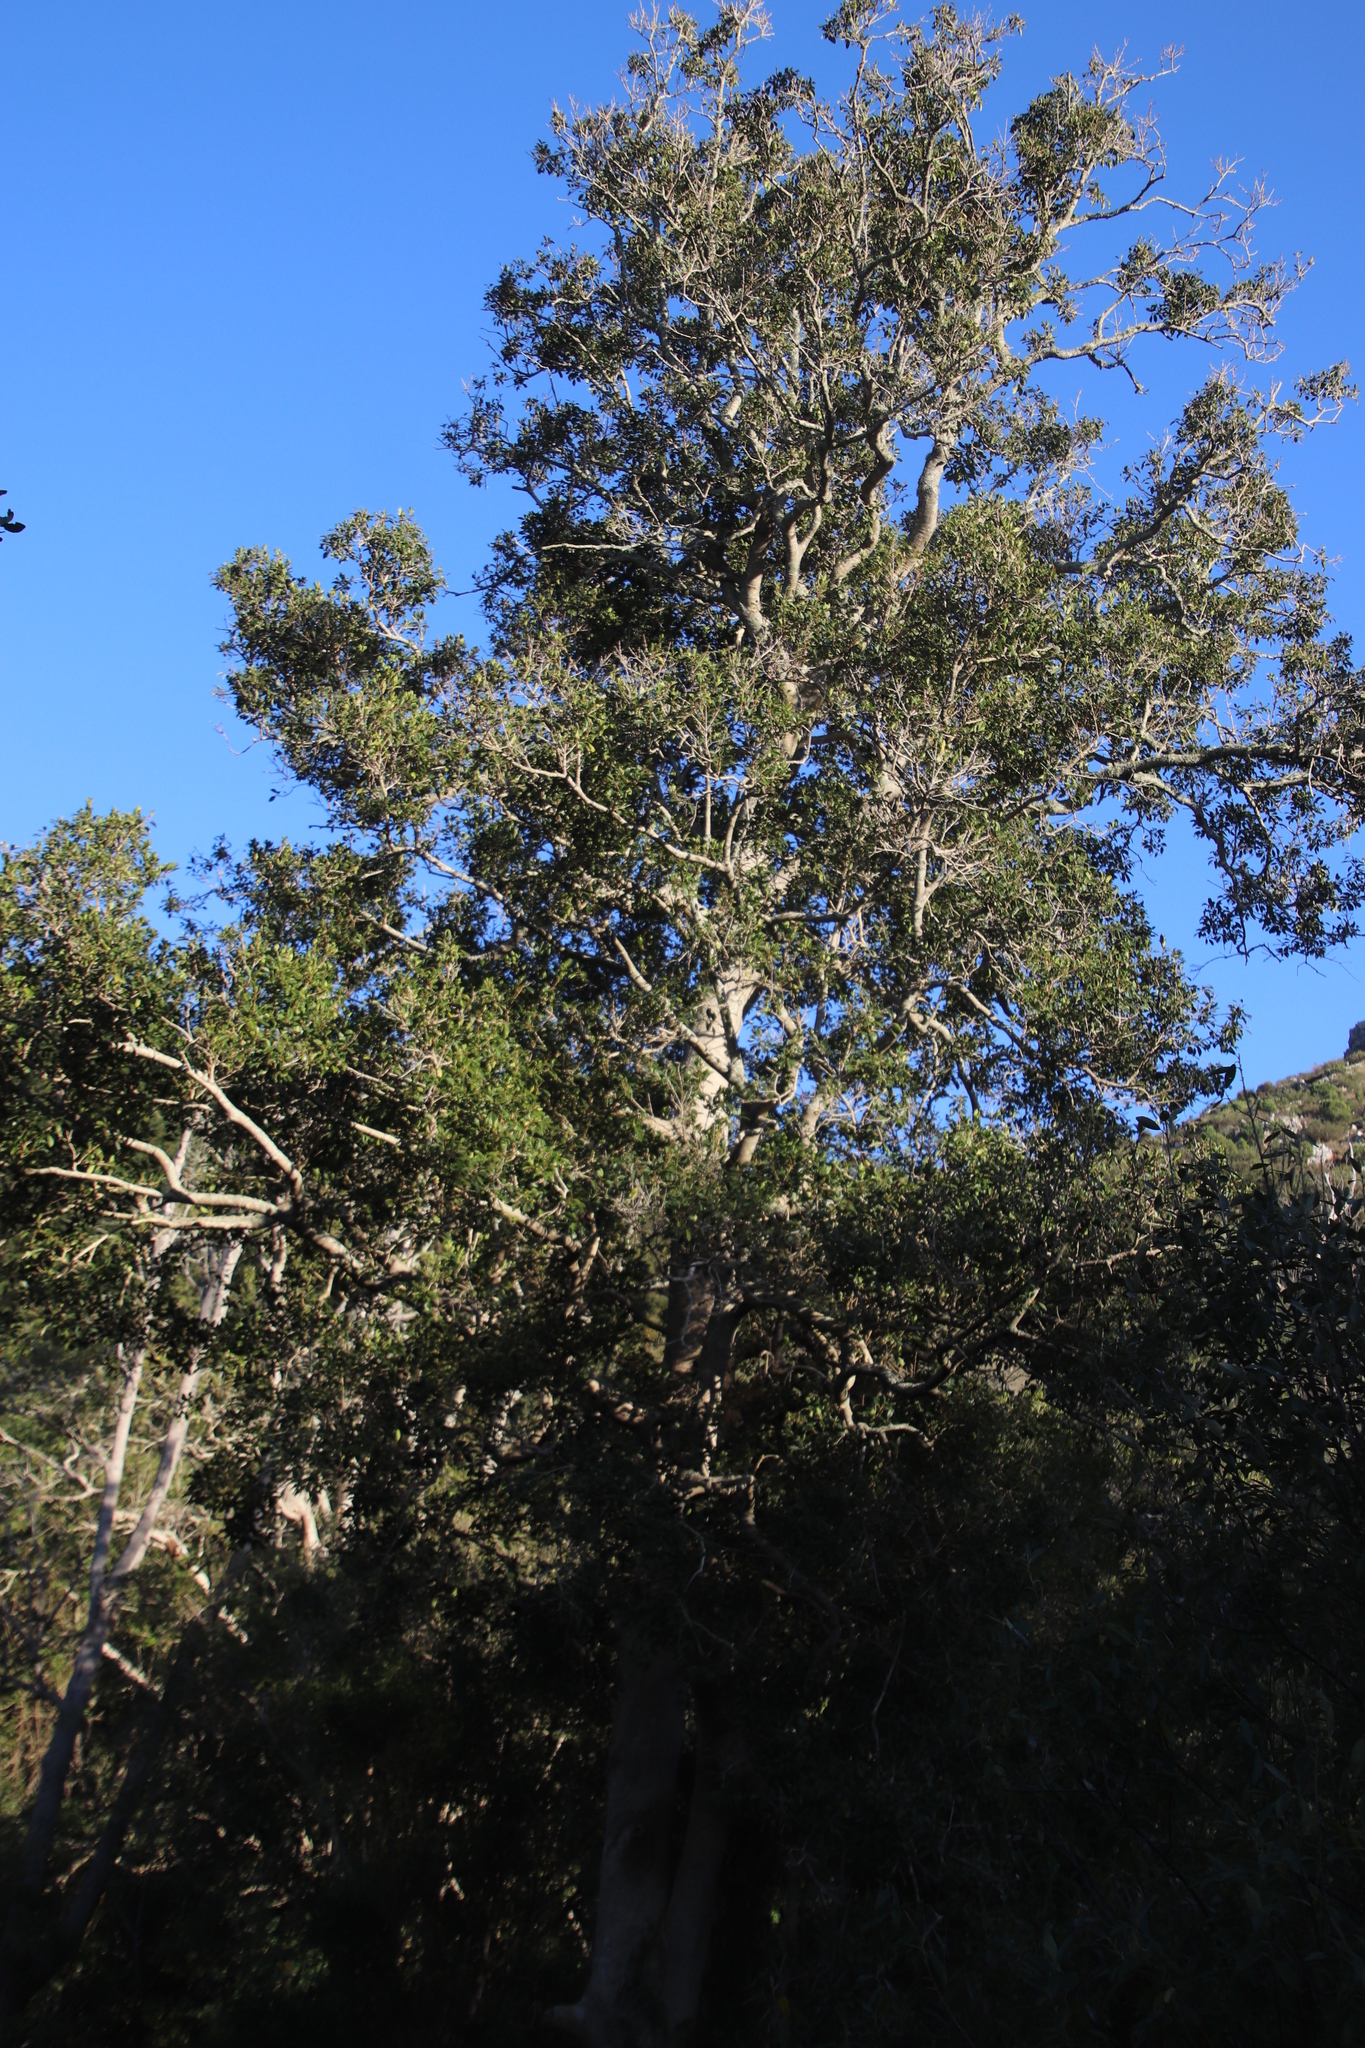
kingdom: Plantae
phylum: Tracheophyta
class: Magnoliopsida
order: Aquifoliales
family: Aquifoliaceae
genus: Ilex
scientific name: Ilex mitis
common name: African holly
